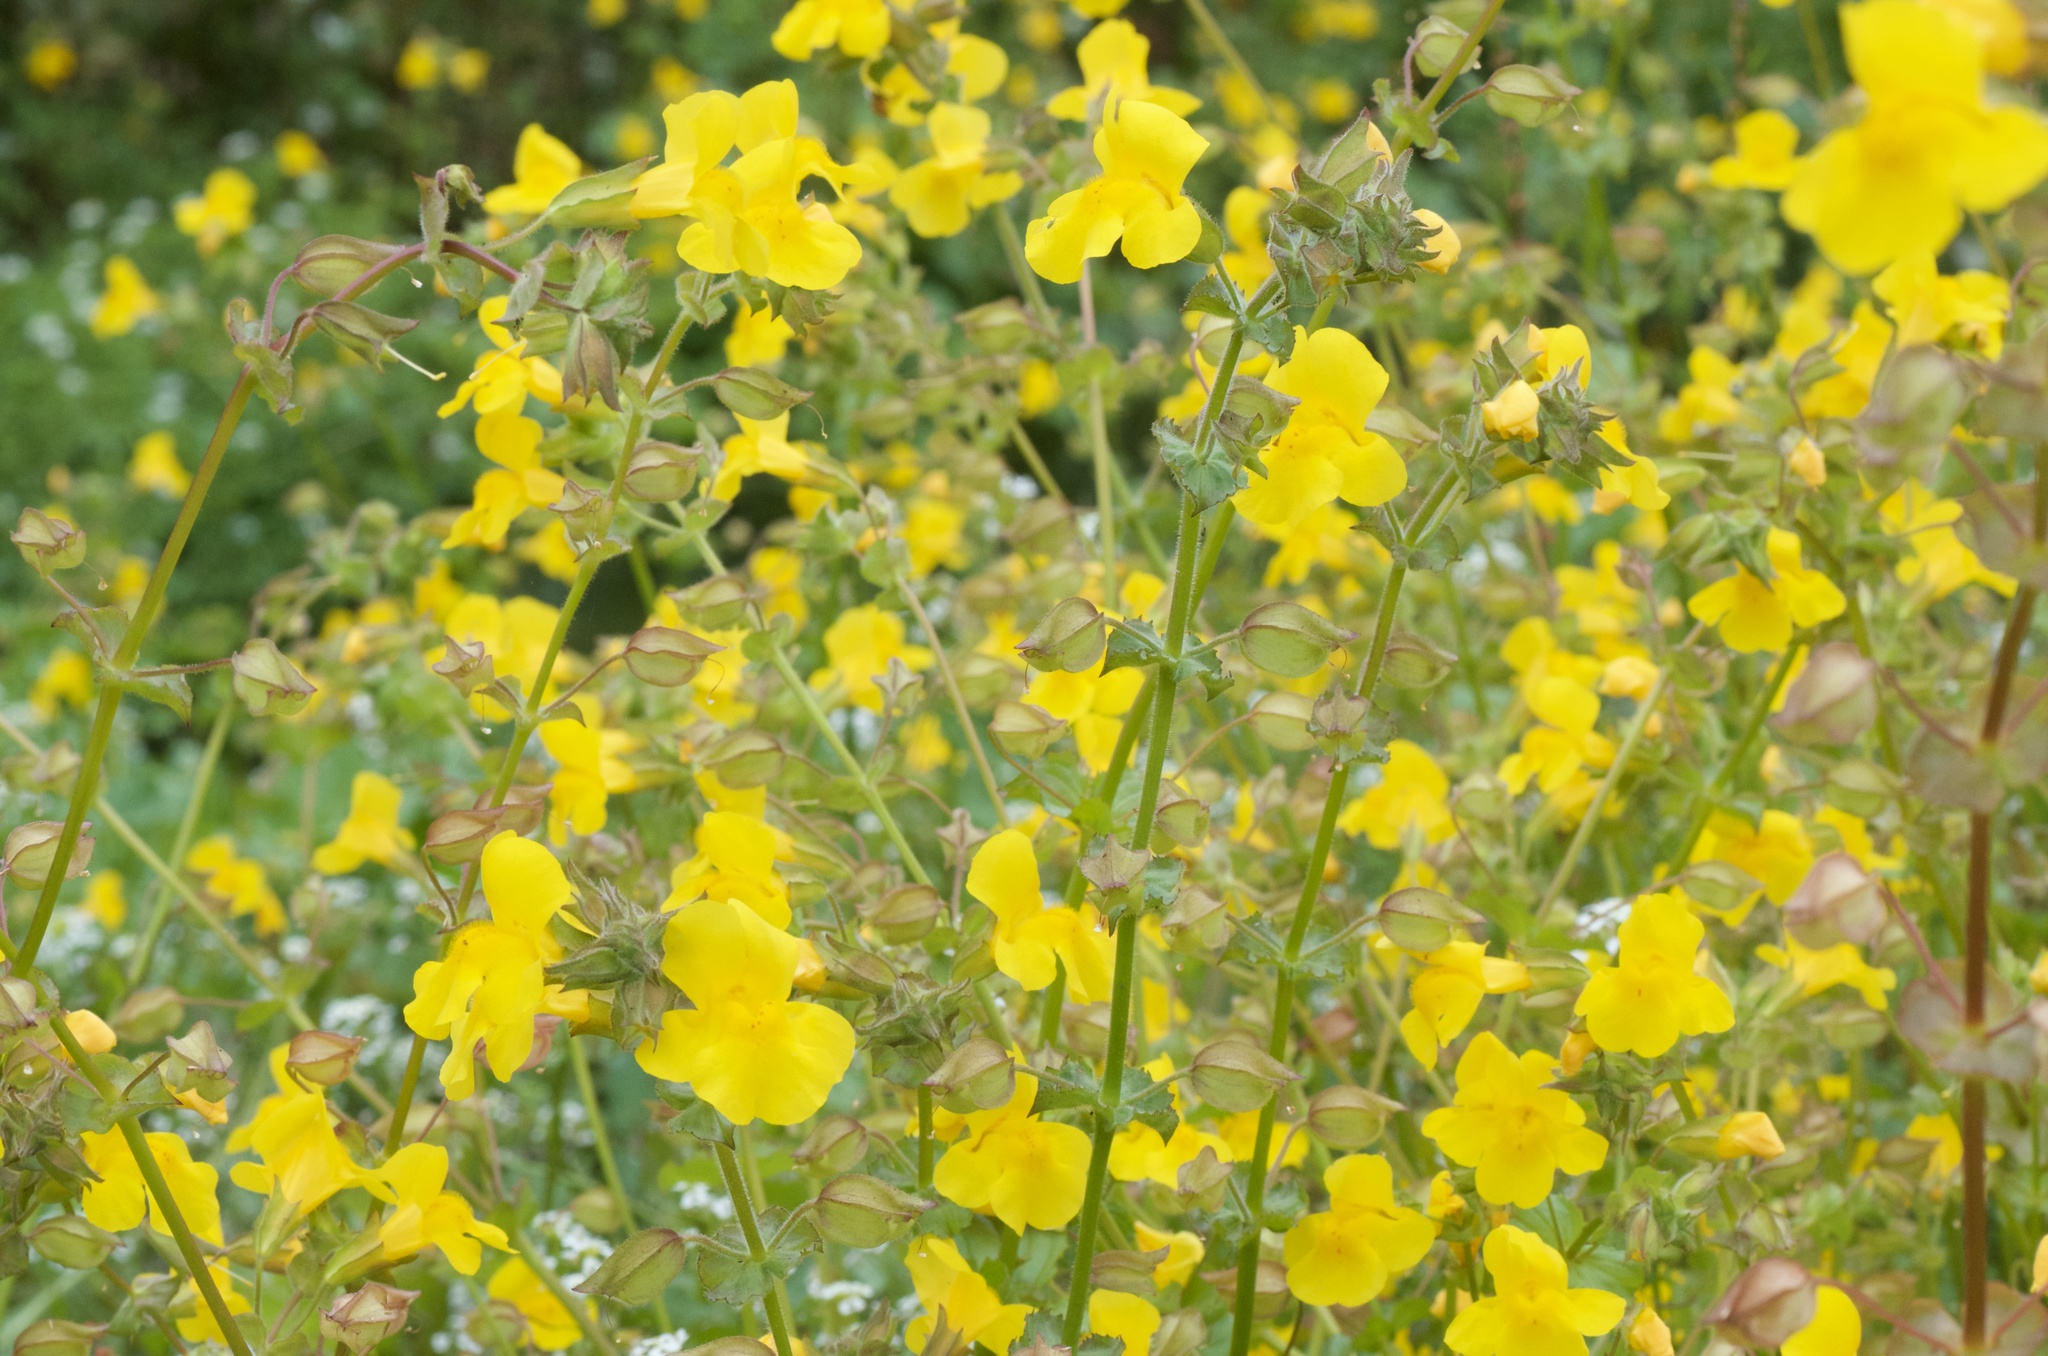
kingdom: Plantae
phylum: Tracheophyta
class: Magnoliopsida
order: Lamiales
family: Phrymaceae
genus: Erythranthe
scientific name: Erythranthe guttata
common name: Monkeyflower
